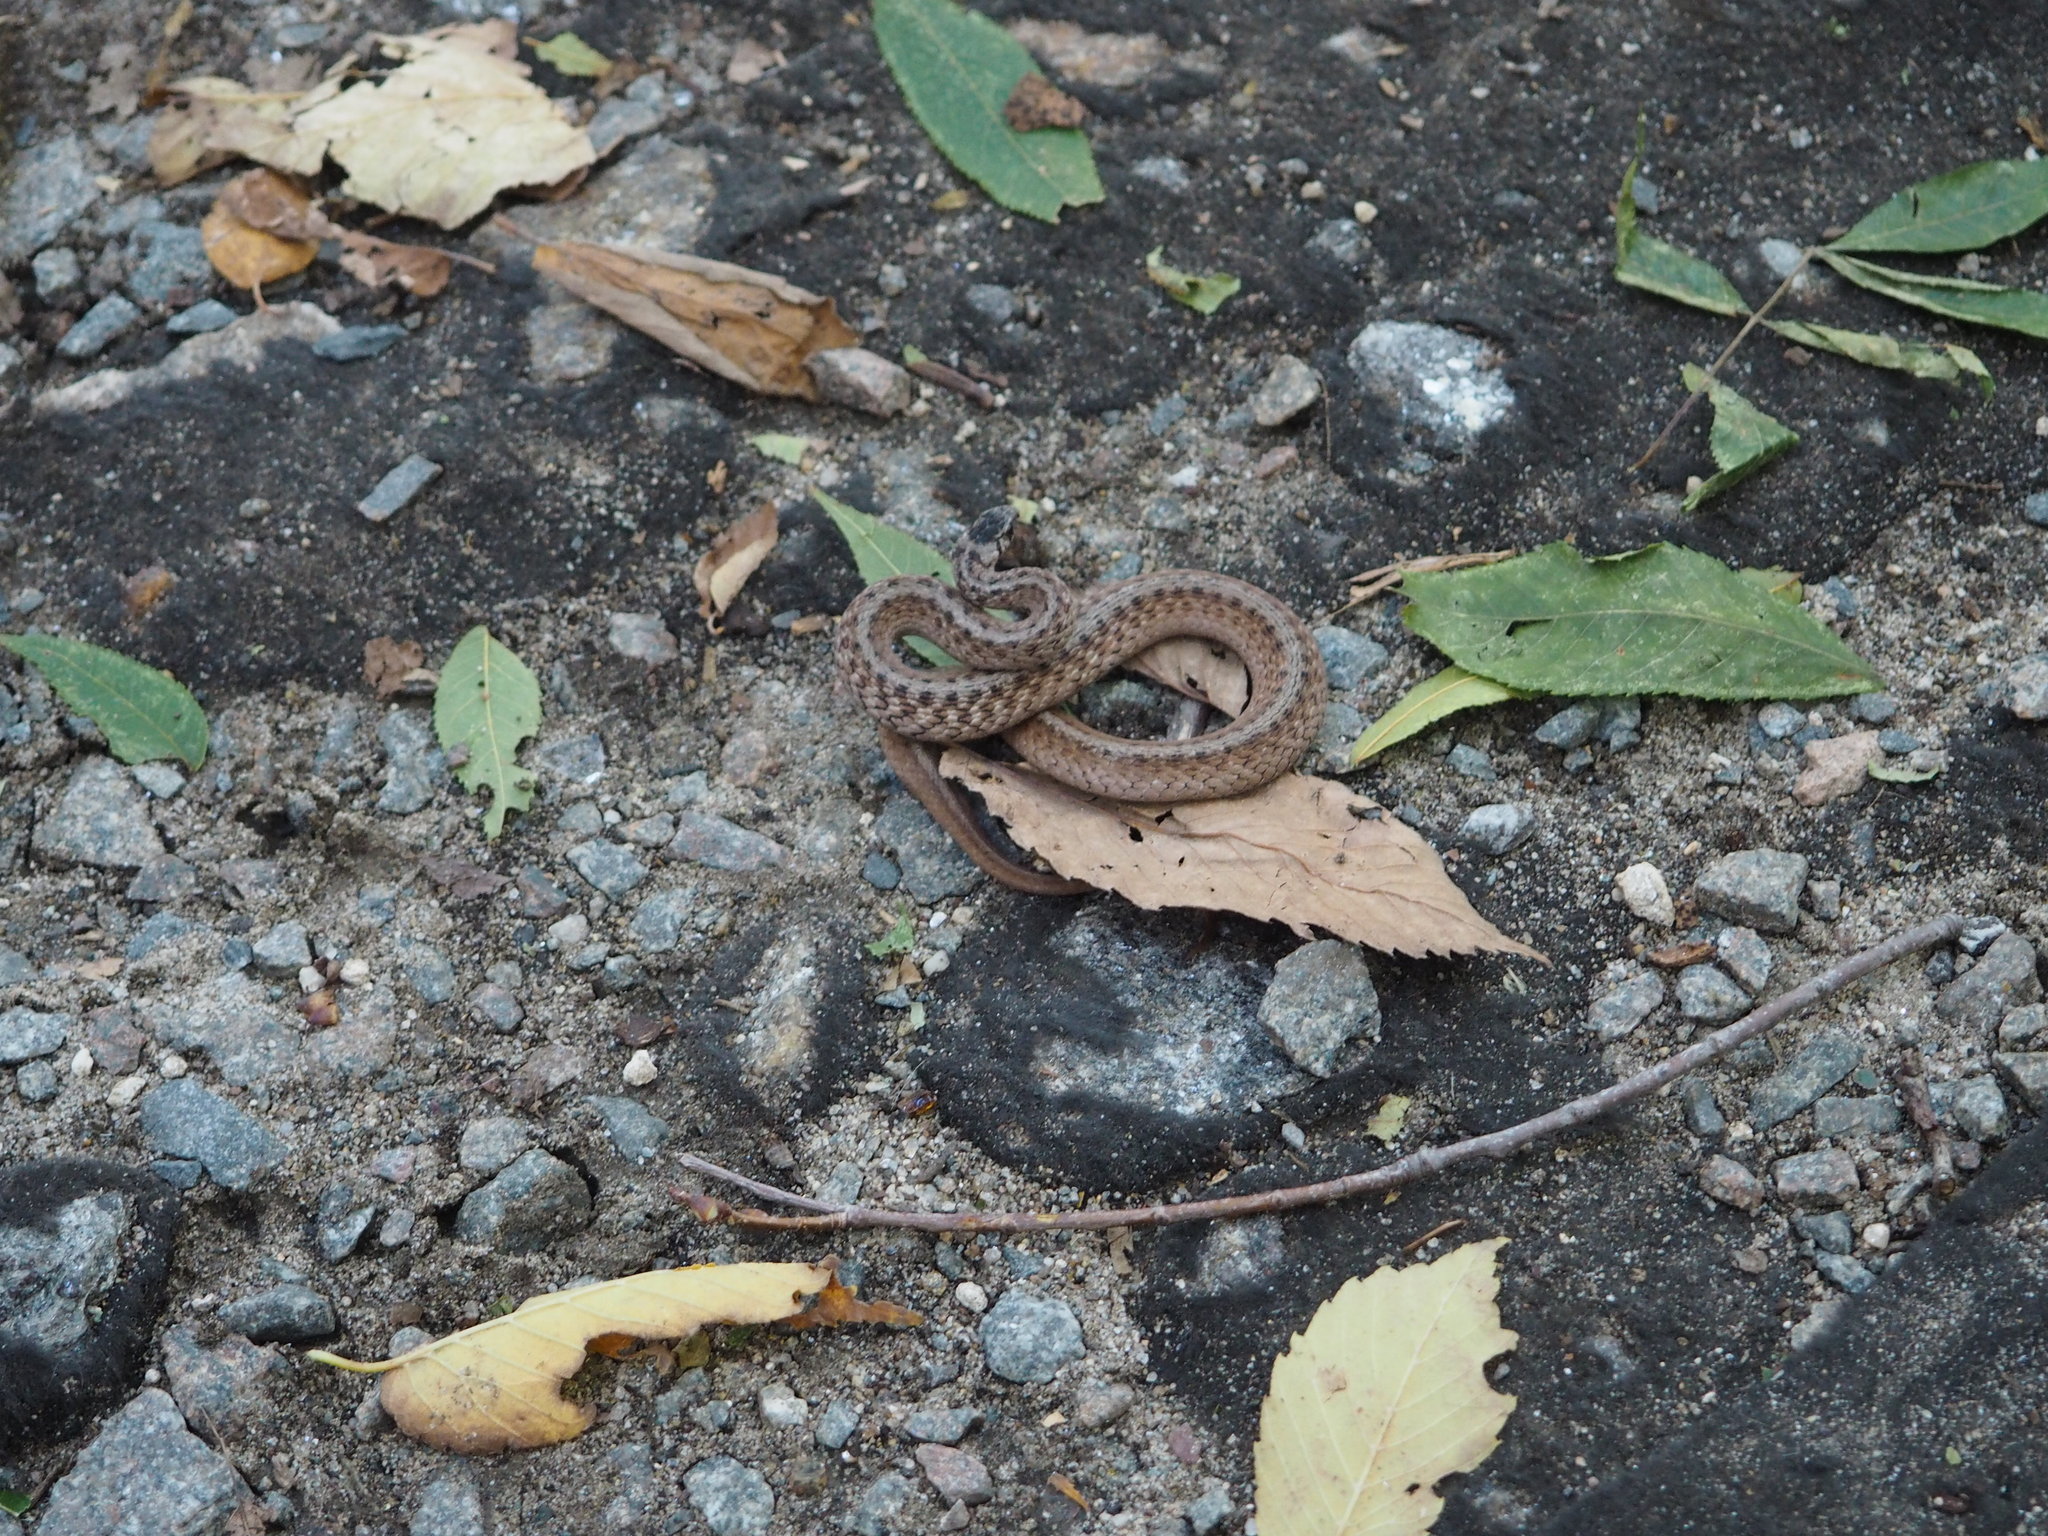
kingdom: Animalia
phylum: Chordata
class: Squamata
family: Colubridae
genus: Storeria
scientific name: Storeria dekayi
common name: (dekay’s) brown snake
